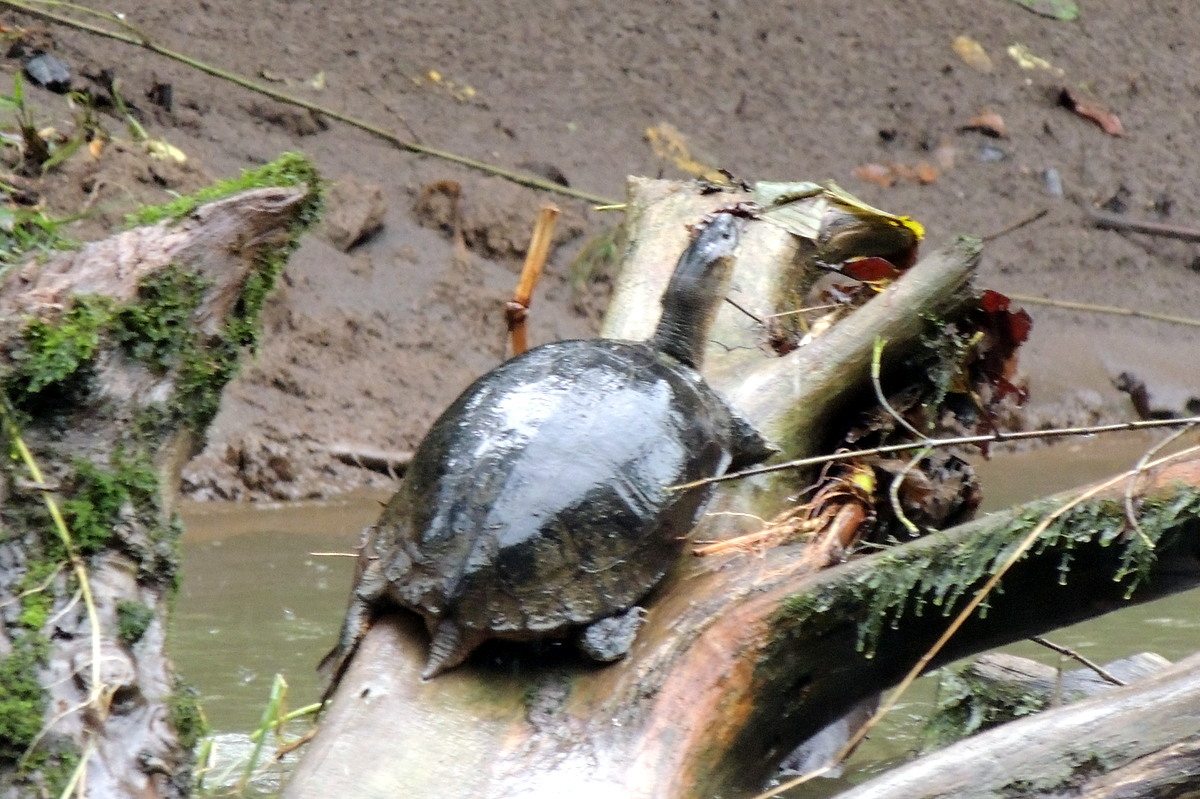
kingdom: Animalia
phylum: Chordata
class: Testudines
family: Geoemydidae
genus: Rhinoclemmys
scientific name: Rhinoclemmys funerea
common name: Black wood turtle
